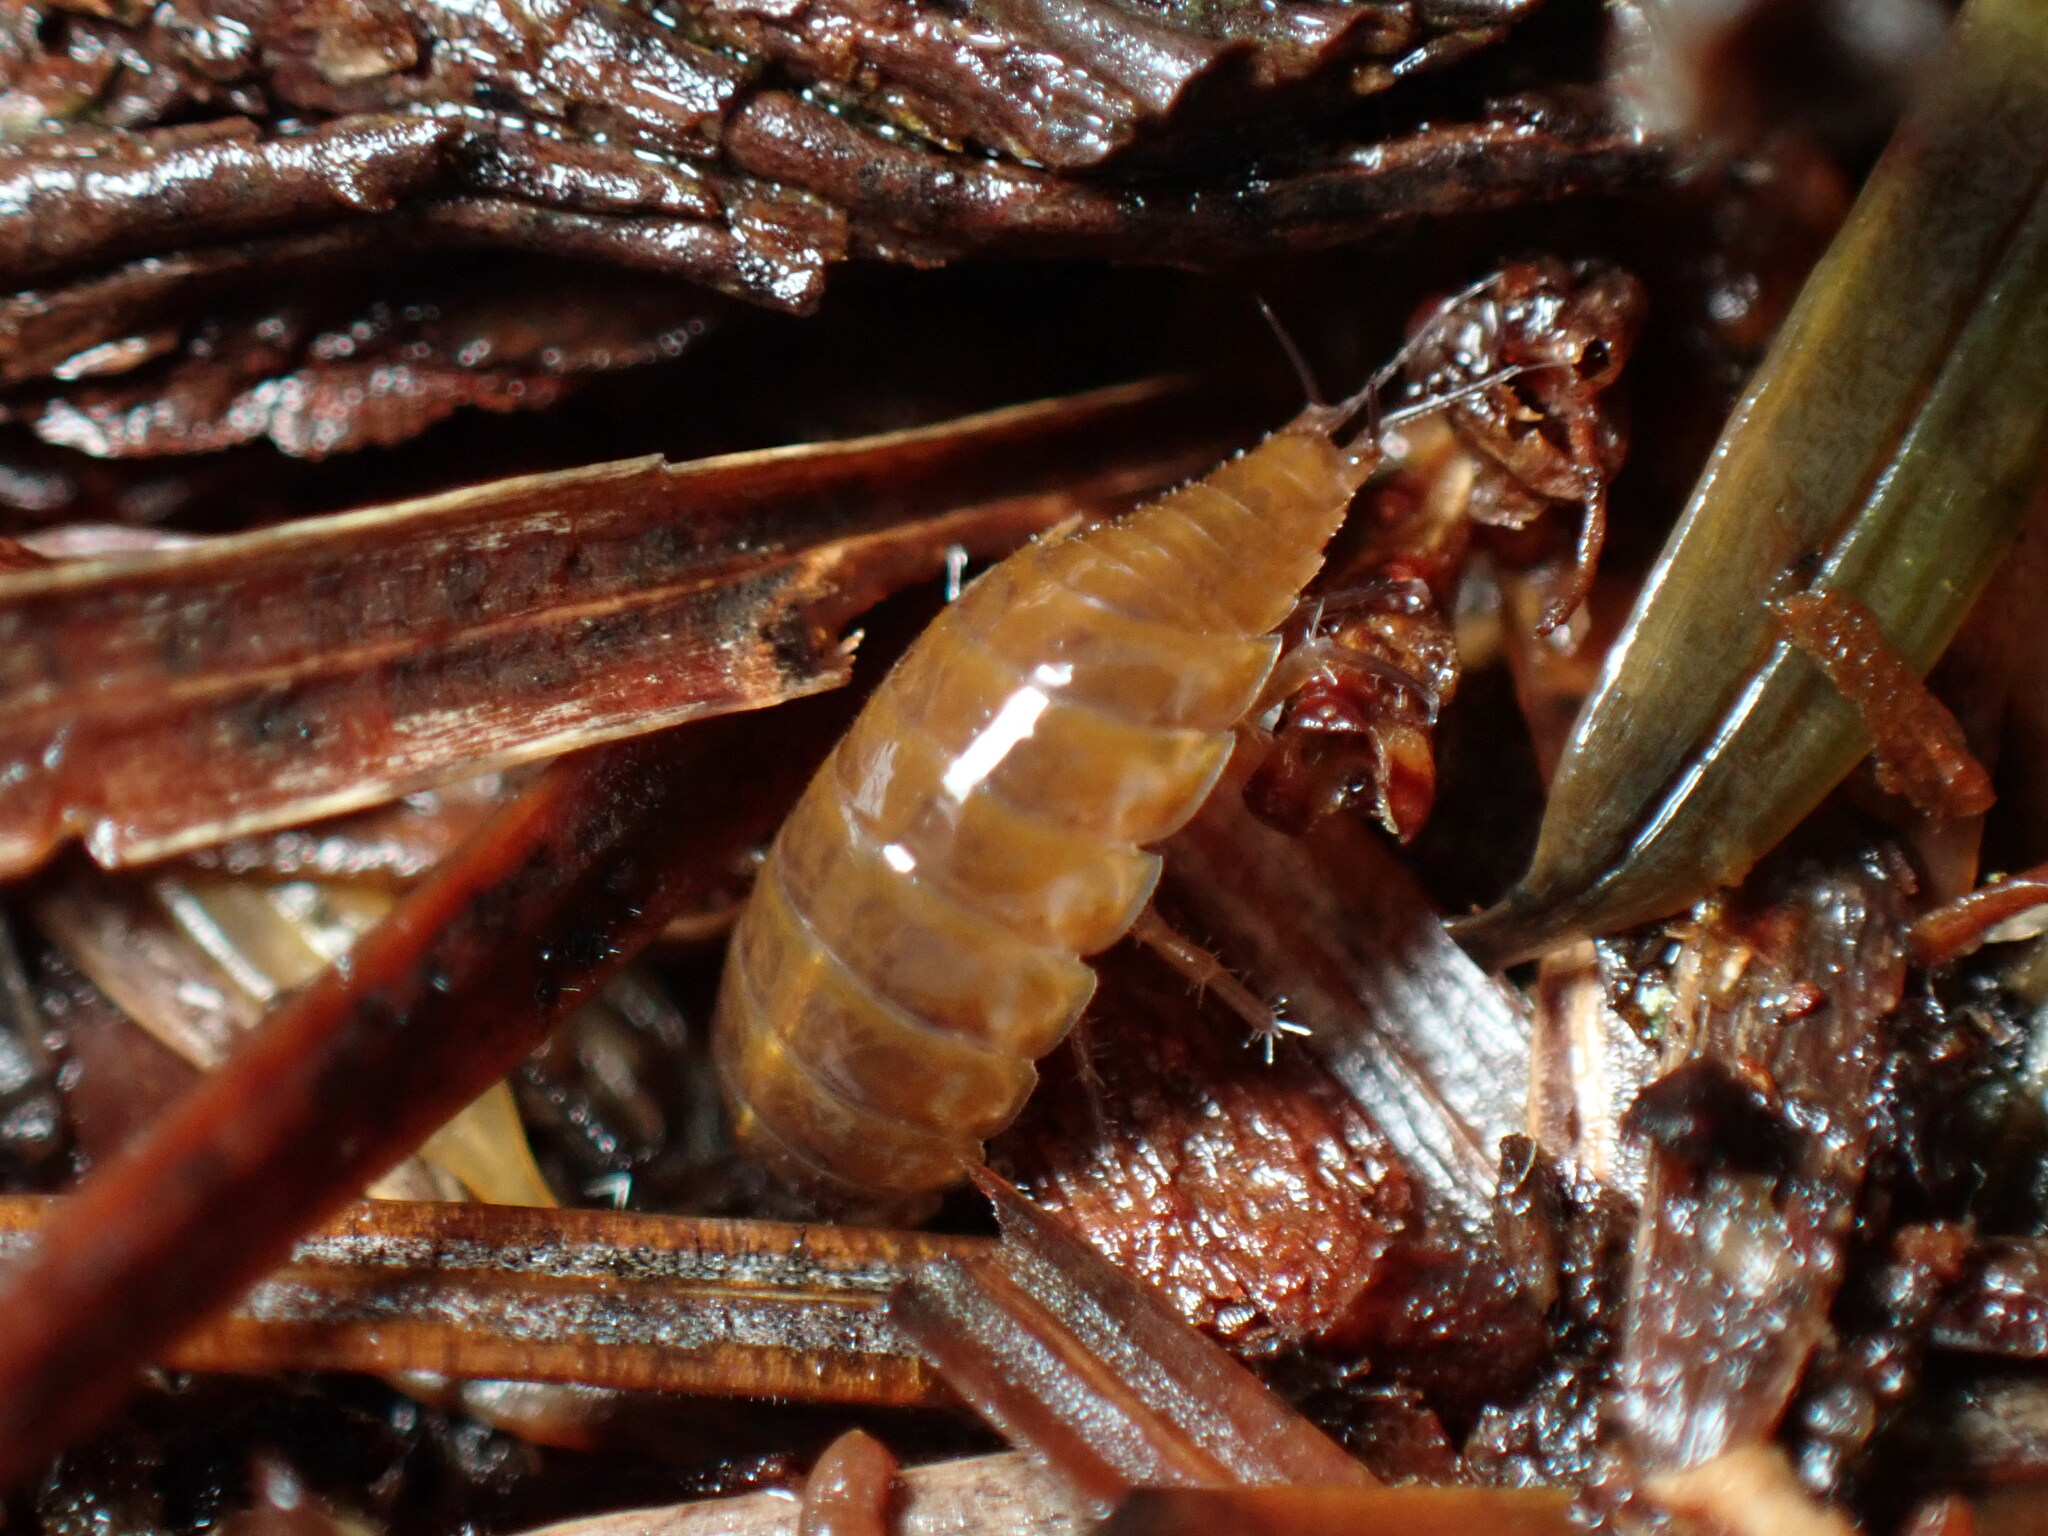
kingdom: Animalia
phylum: Arthropoda
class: Malacostraca
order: Isopoda
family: Ligiidae
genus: Ligidium
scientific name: Ligidium gracile
